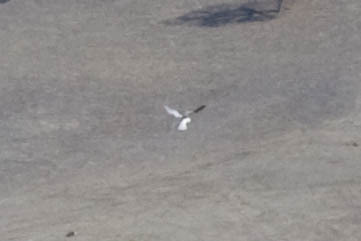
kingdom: Animalia
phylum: Chordata
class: Aves
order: Accipitriformes
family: Accipitridae
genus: Elanus
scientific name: Elanus leucurus
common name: White-tailed kite
